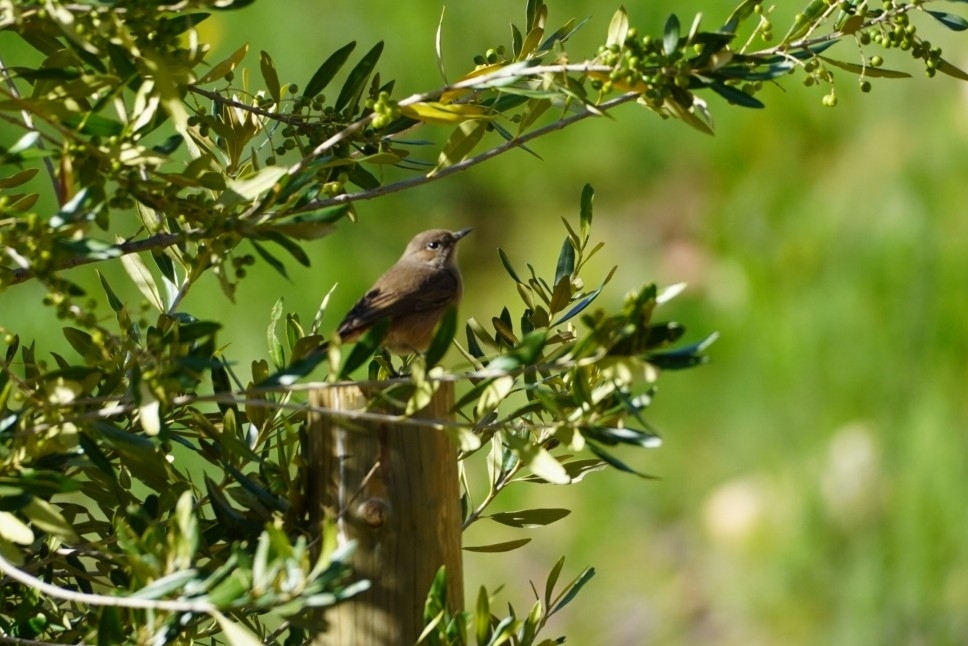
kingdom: Animalia
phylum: Chordata
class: Aves
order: Passeriformes
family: Muscicapidae
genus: Oenanthe
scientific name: Oenanthe familiaris
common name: Familiar chat
